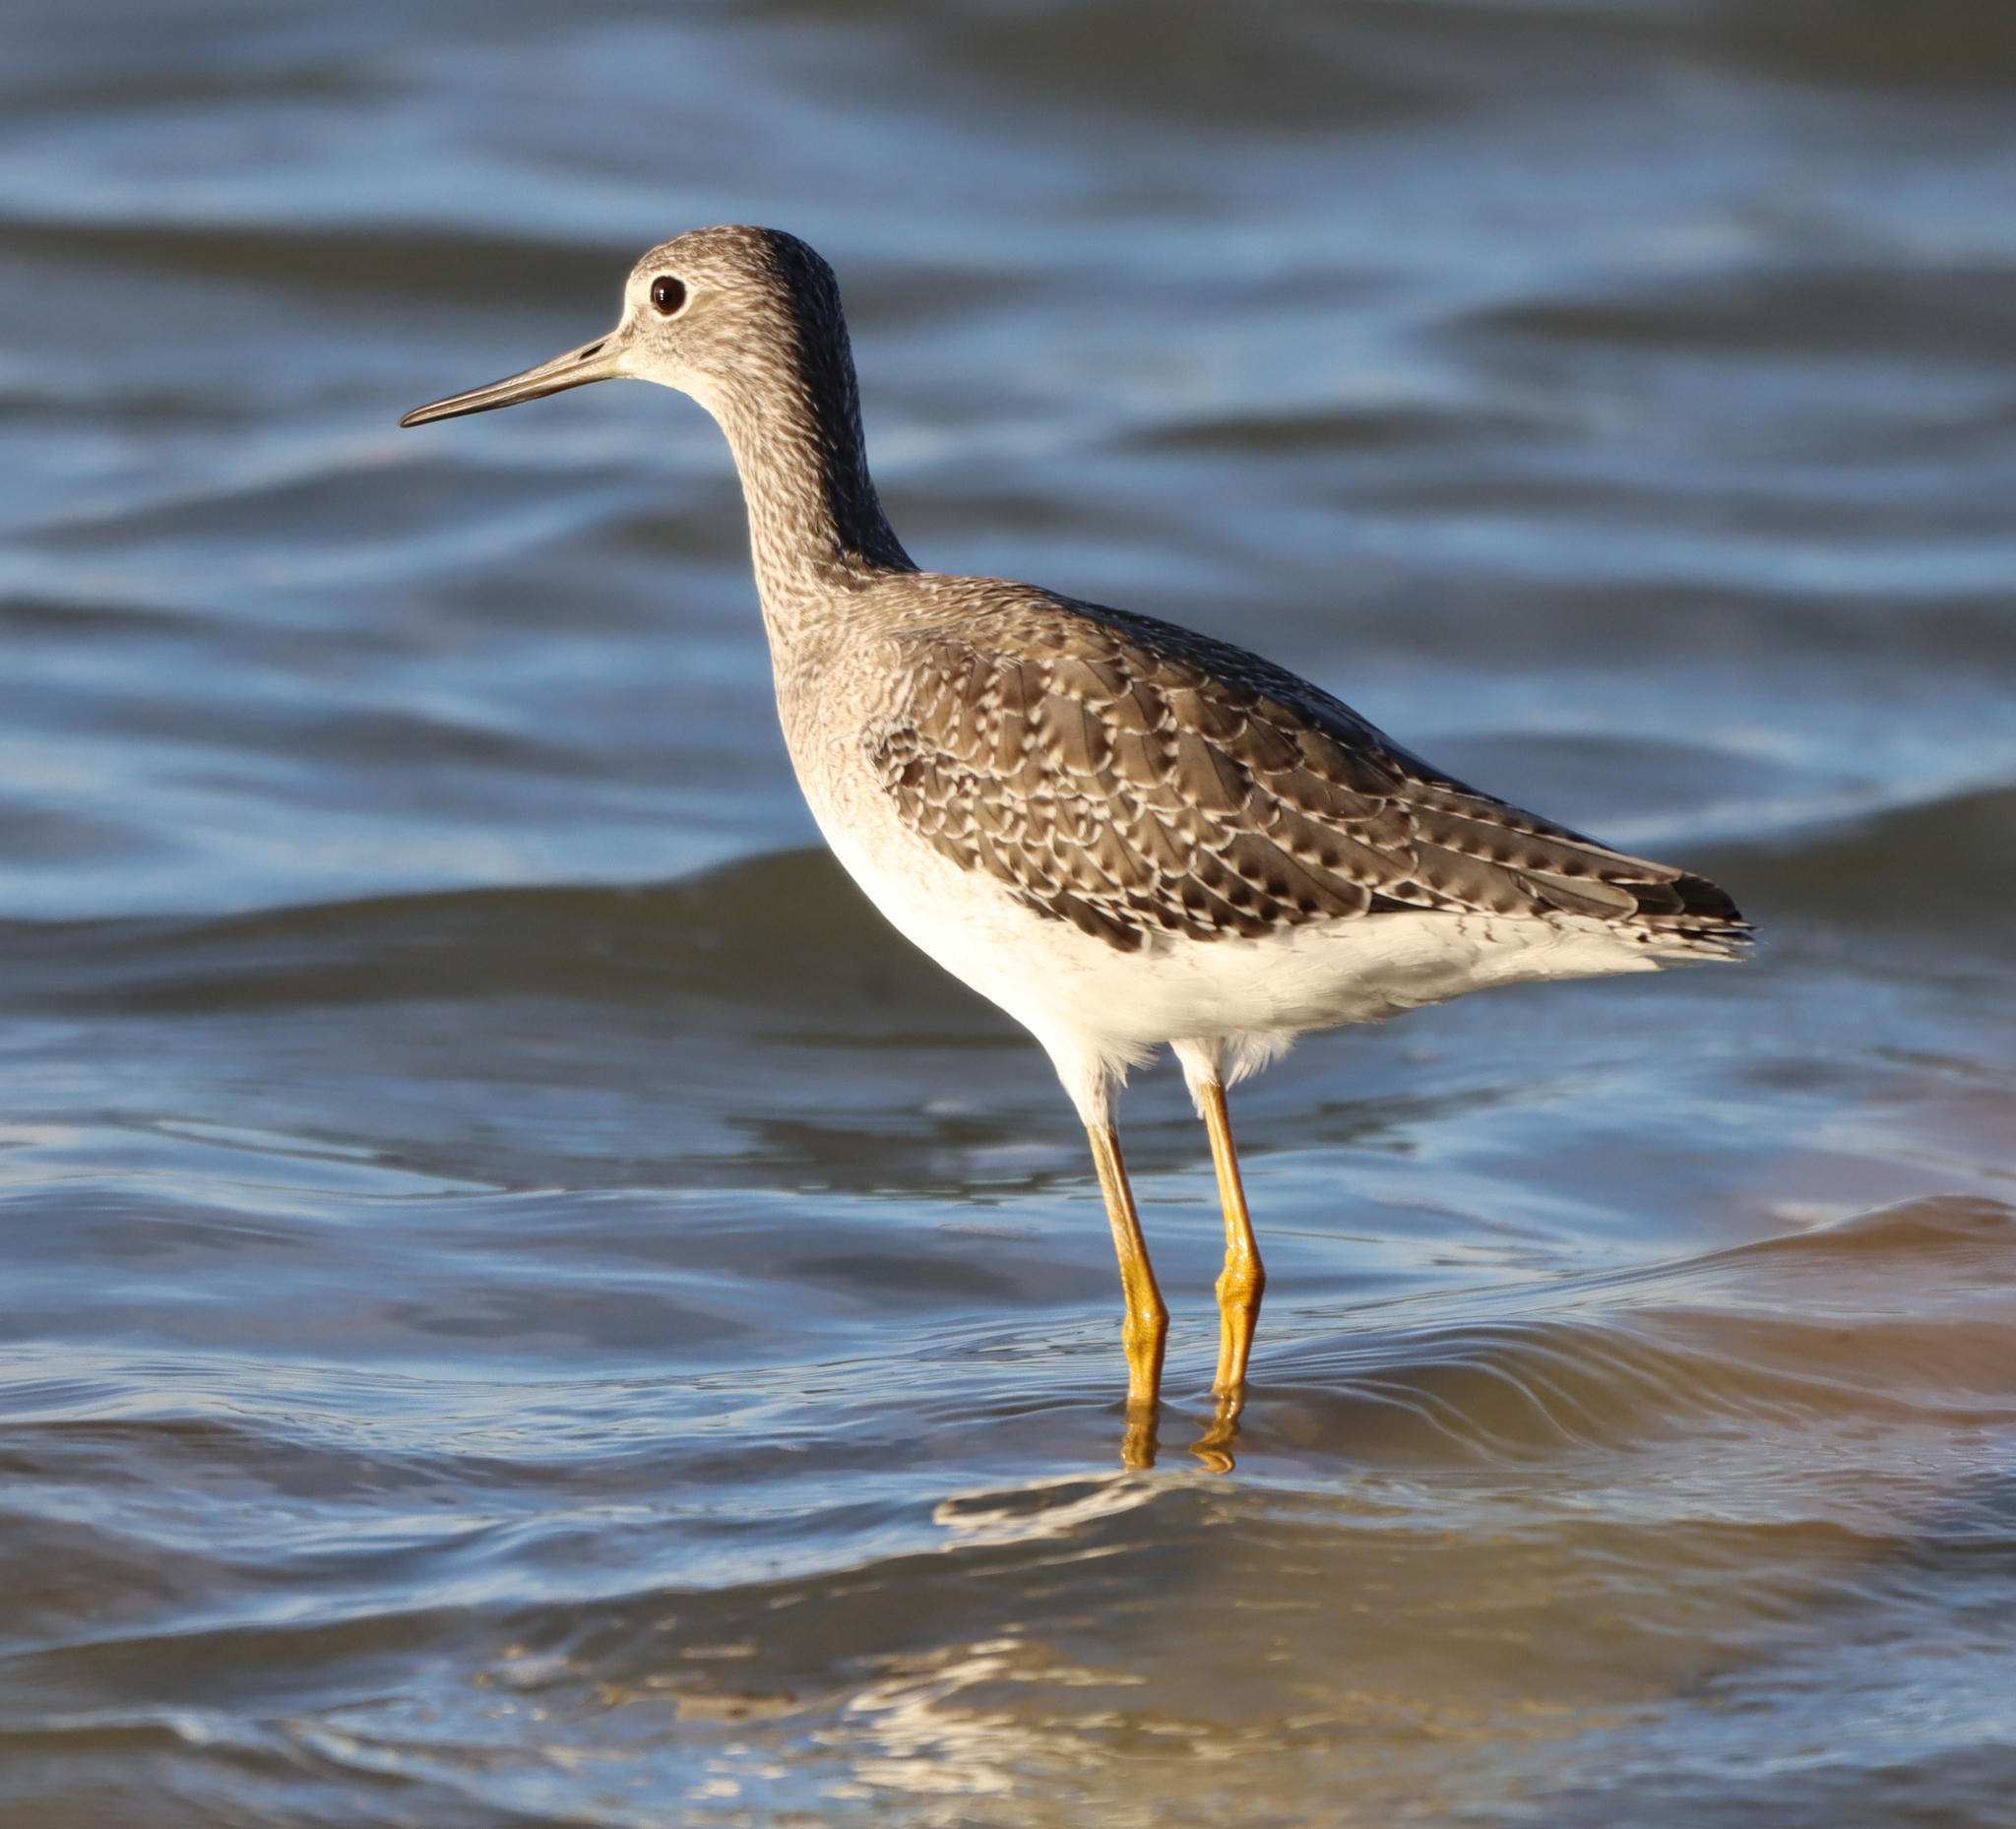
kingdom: Animalia
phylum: Chordata
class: Aves
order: Charadriiformes
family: Scolopacidae
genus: Tringa
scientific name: Tringa melanoleuca
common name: Greater yellowlegs
